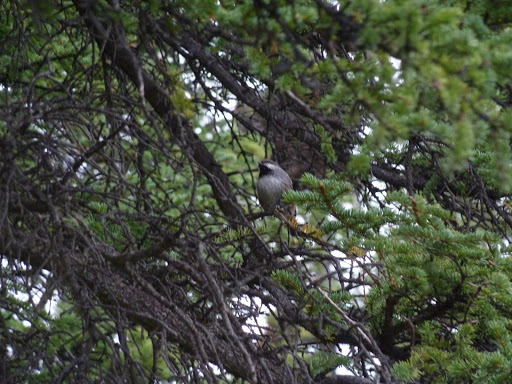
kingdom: Animalia
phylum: Chordata
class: Aves
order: Passeriformes
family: Paridae
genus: Poecile
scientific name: Poecile hudsonicus
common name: Boreal chickadee
